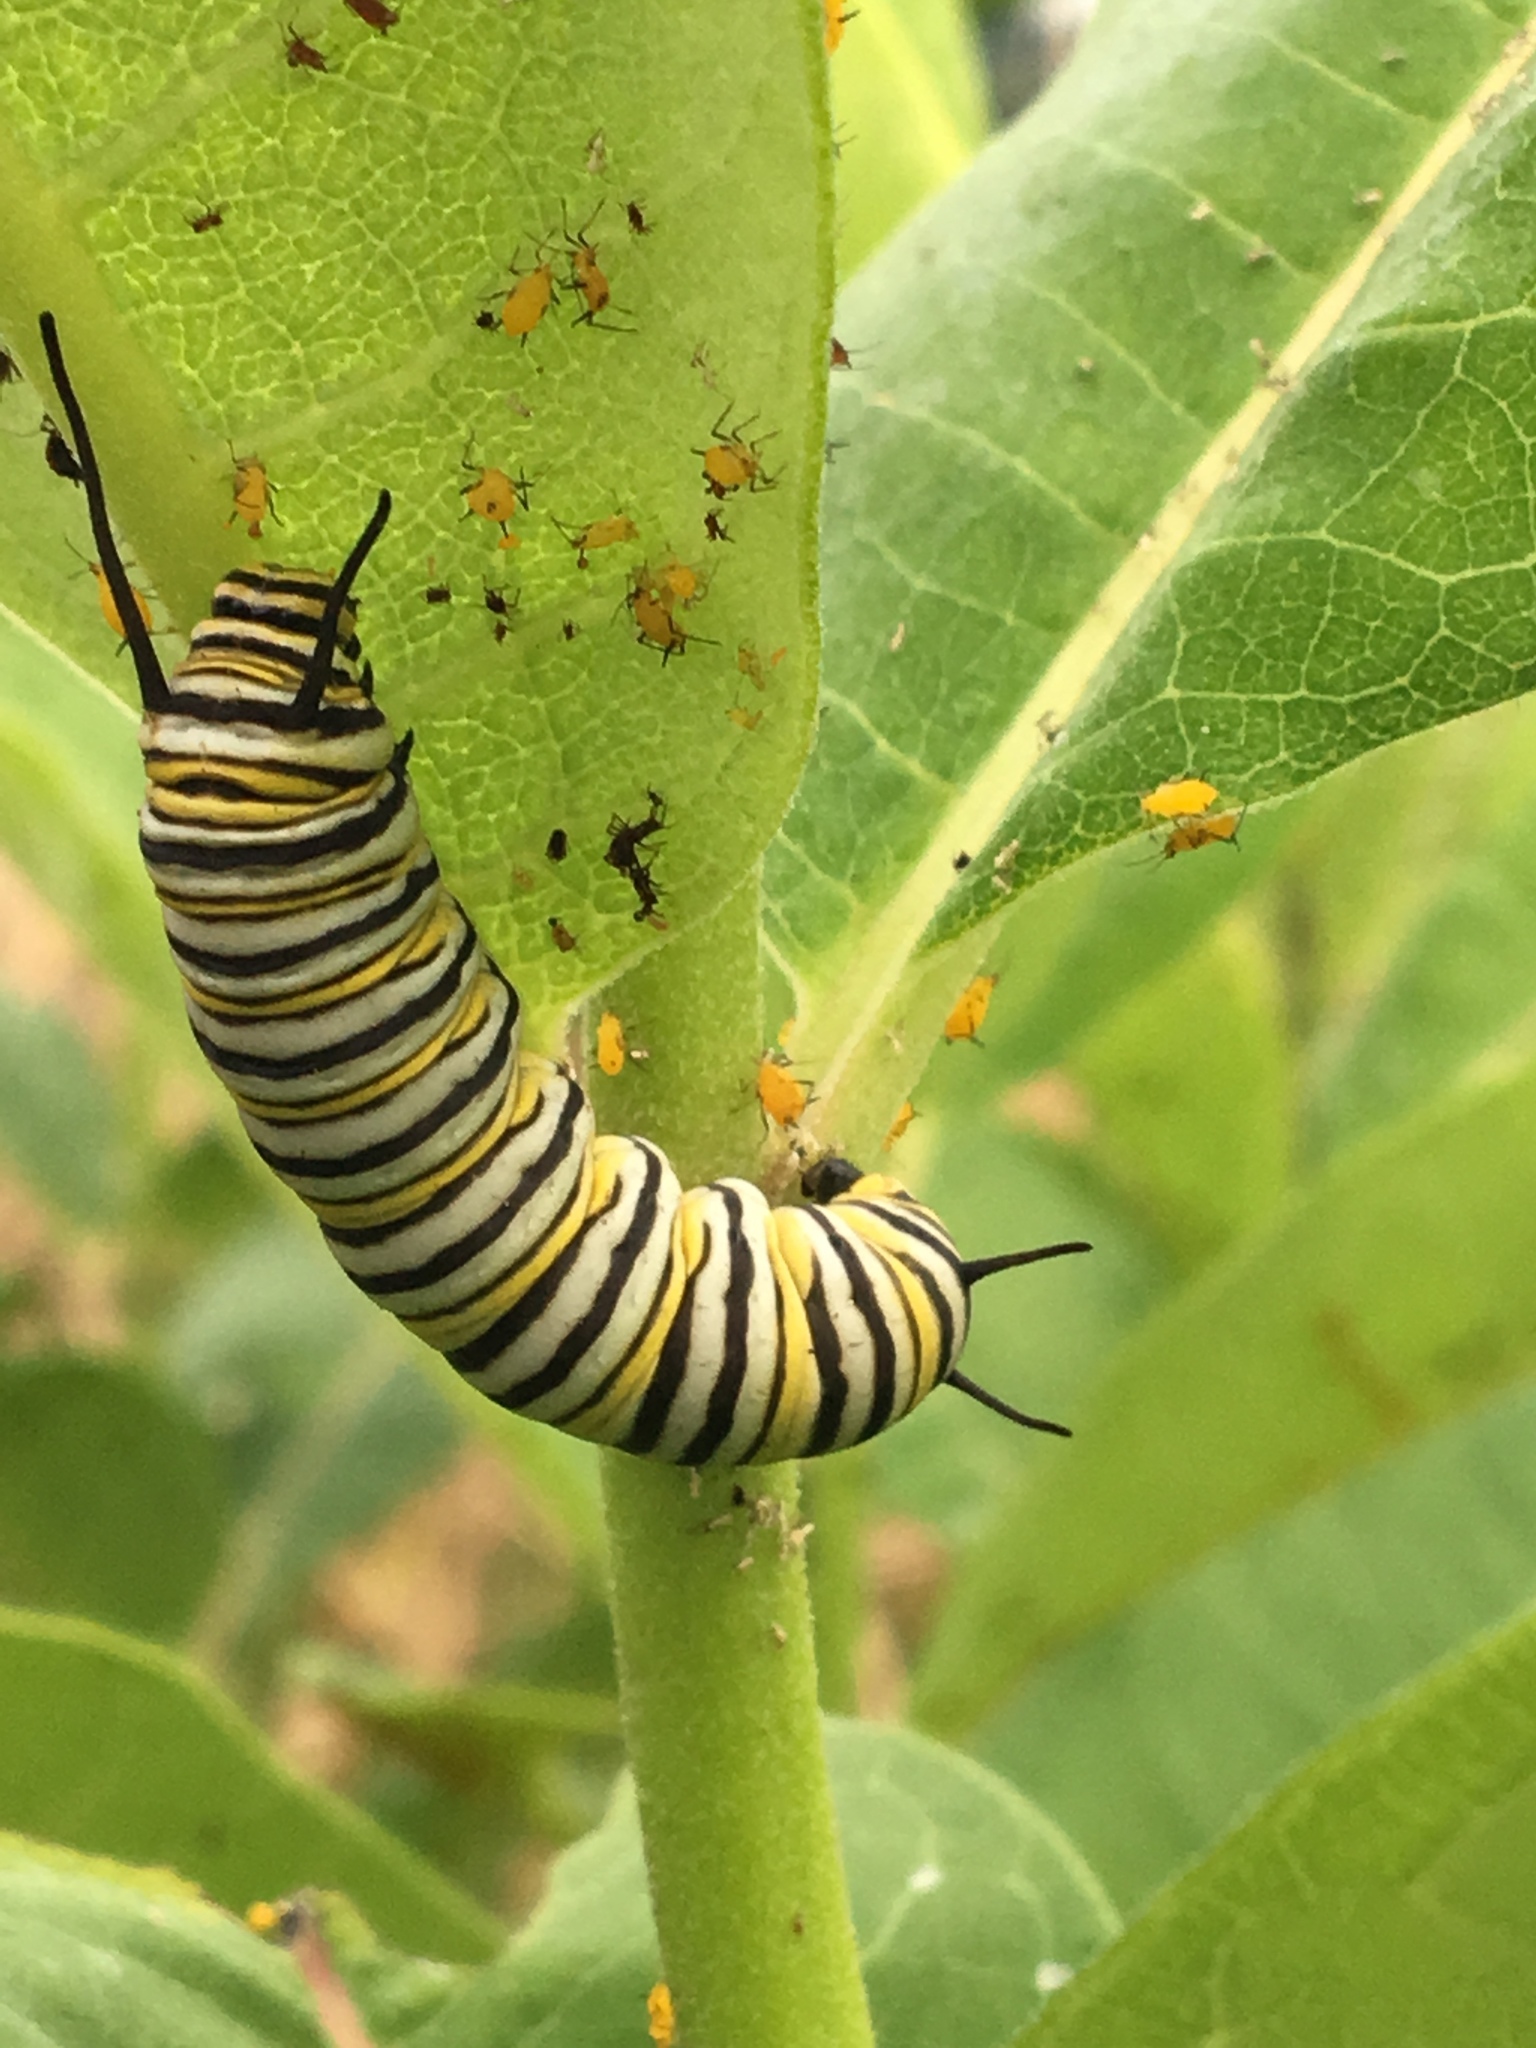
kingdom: Animalia
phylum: Arthropoda
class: Insecta
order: Lepidoptera
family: Nymphalidae
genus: Danaus
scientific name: Danaus plexippus
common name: Monarch
